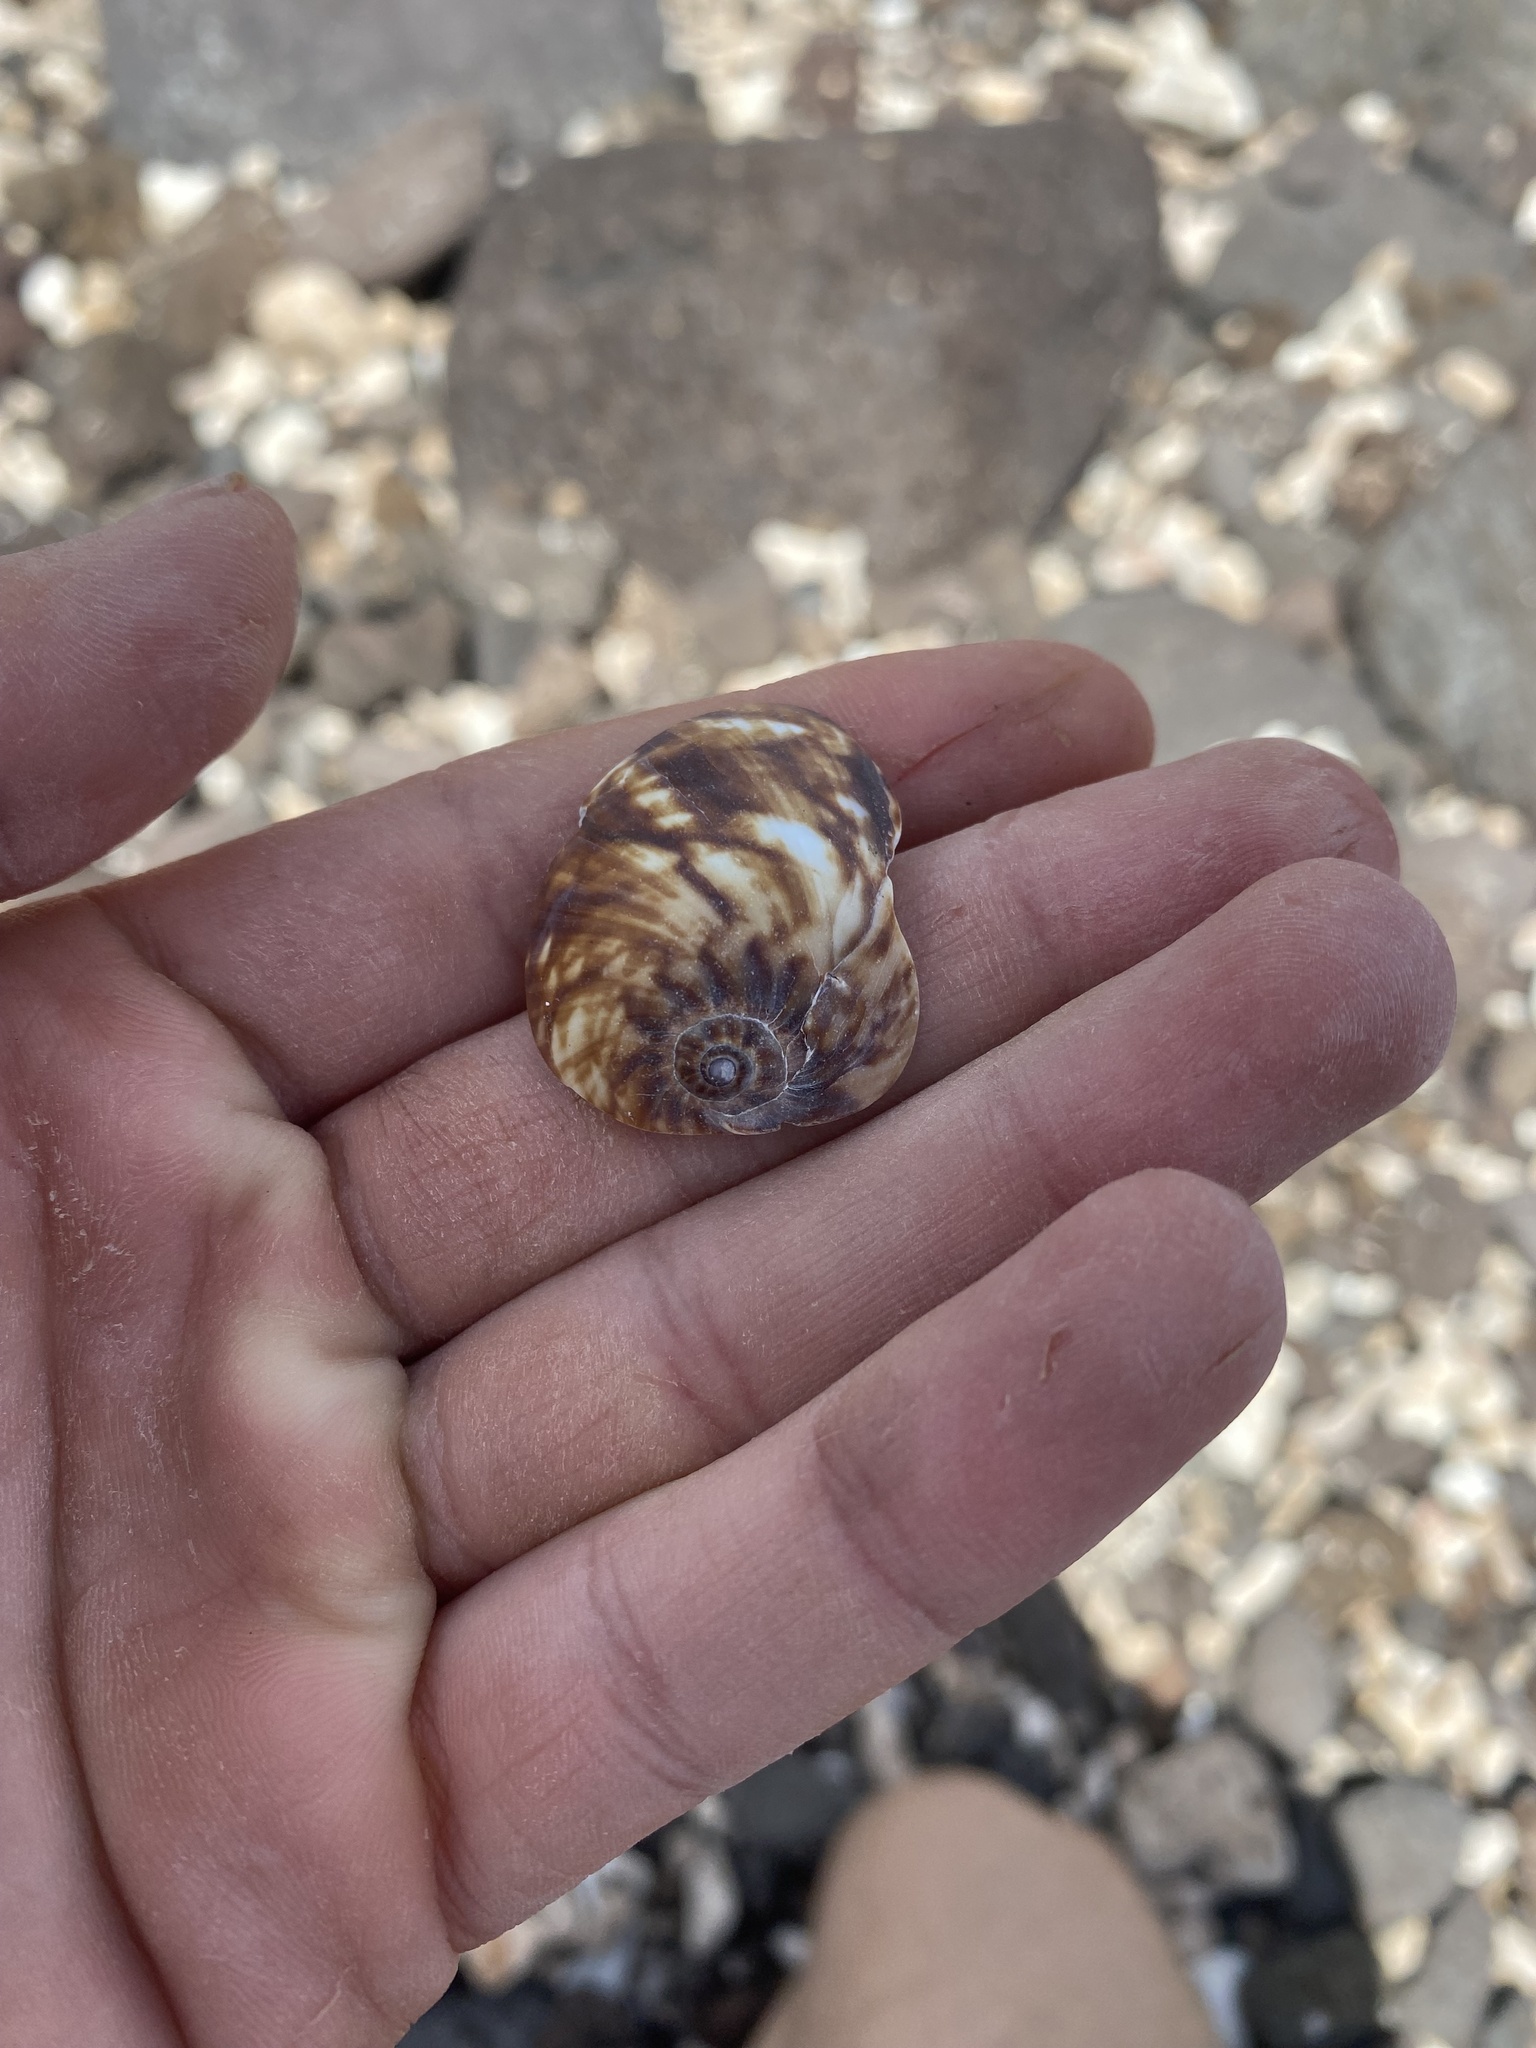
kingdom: Animalia
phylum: Mollusca
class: Gastropoda
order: Littorinimorpha
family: Cypraeidae
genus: Mauritia
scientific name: Mauritia mauritiana
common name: Hump-backed cowrie
